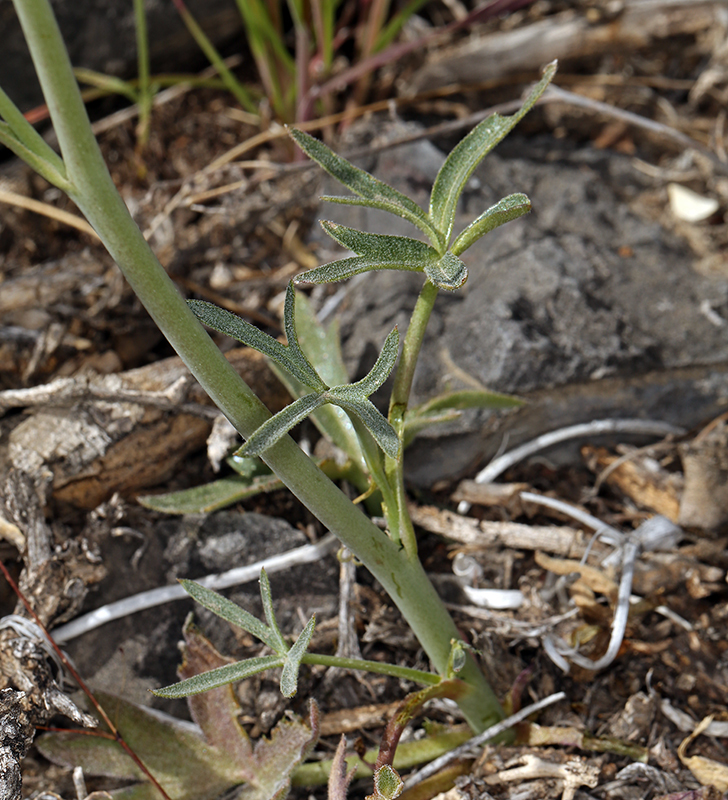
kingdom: Plantae
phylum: Tracheophyta
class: Magnoliopsida
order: Ranunculales
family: Ranunculaceae
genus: Delphinium
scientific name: Delphinium parishii
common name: Apache larkspur
